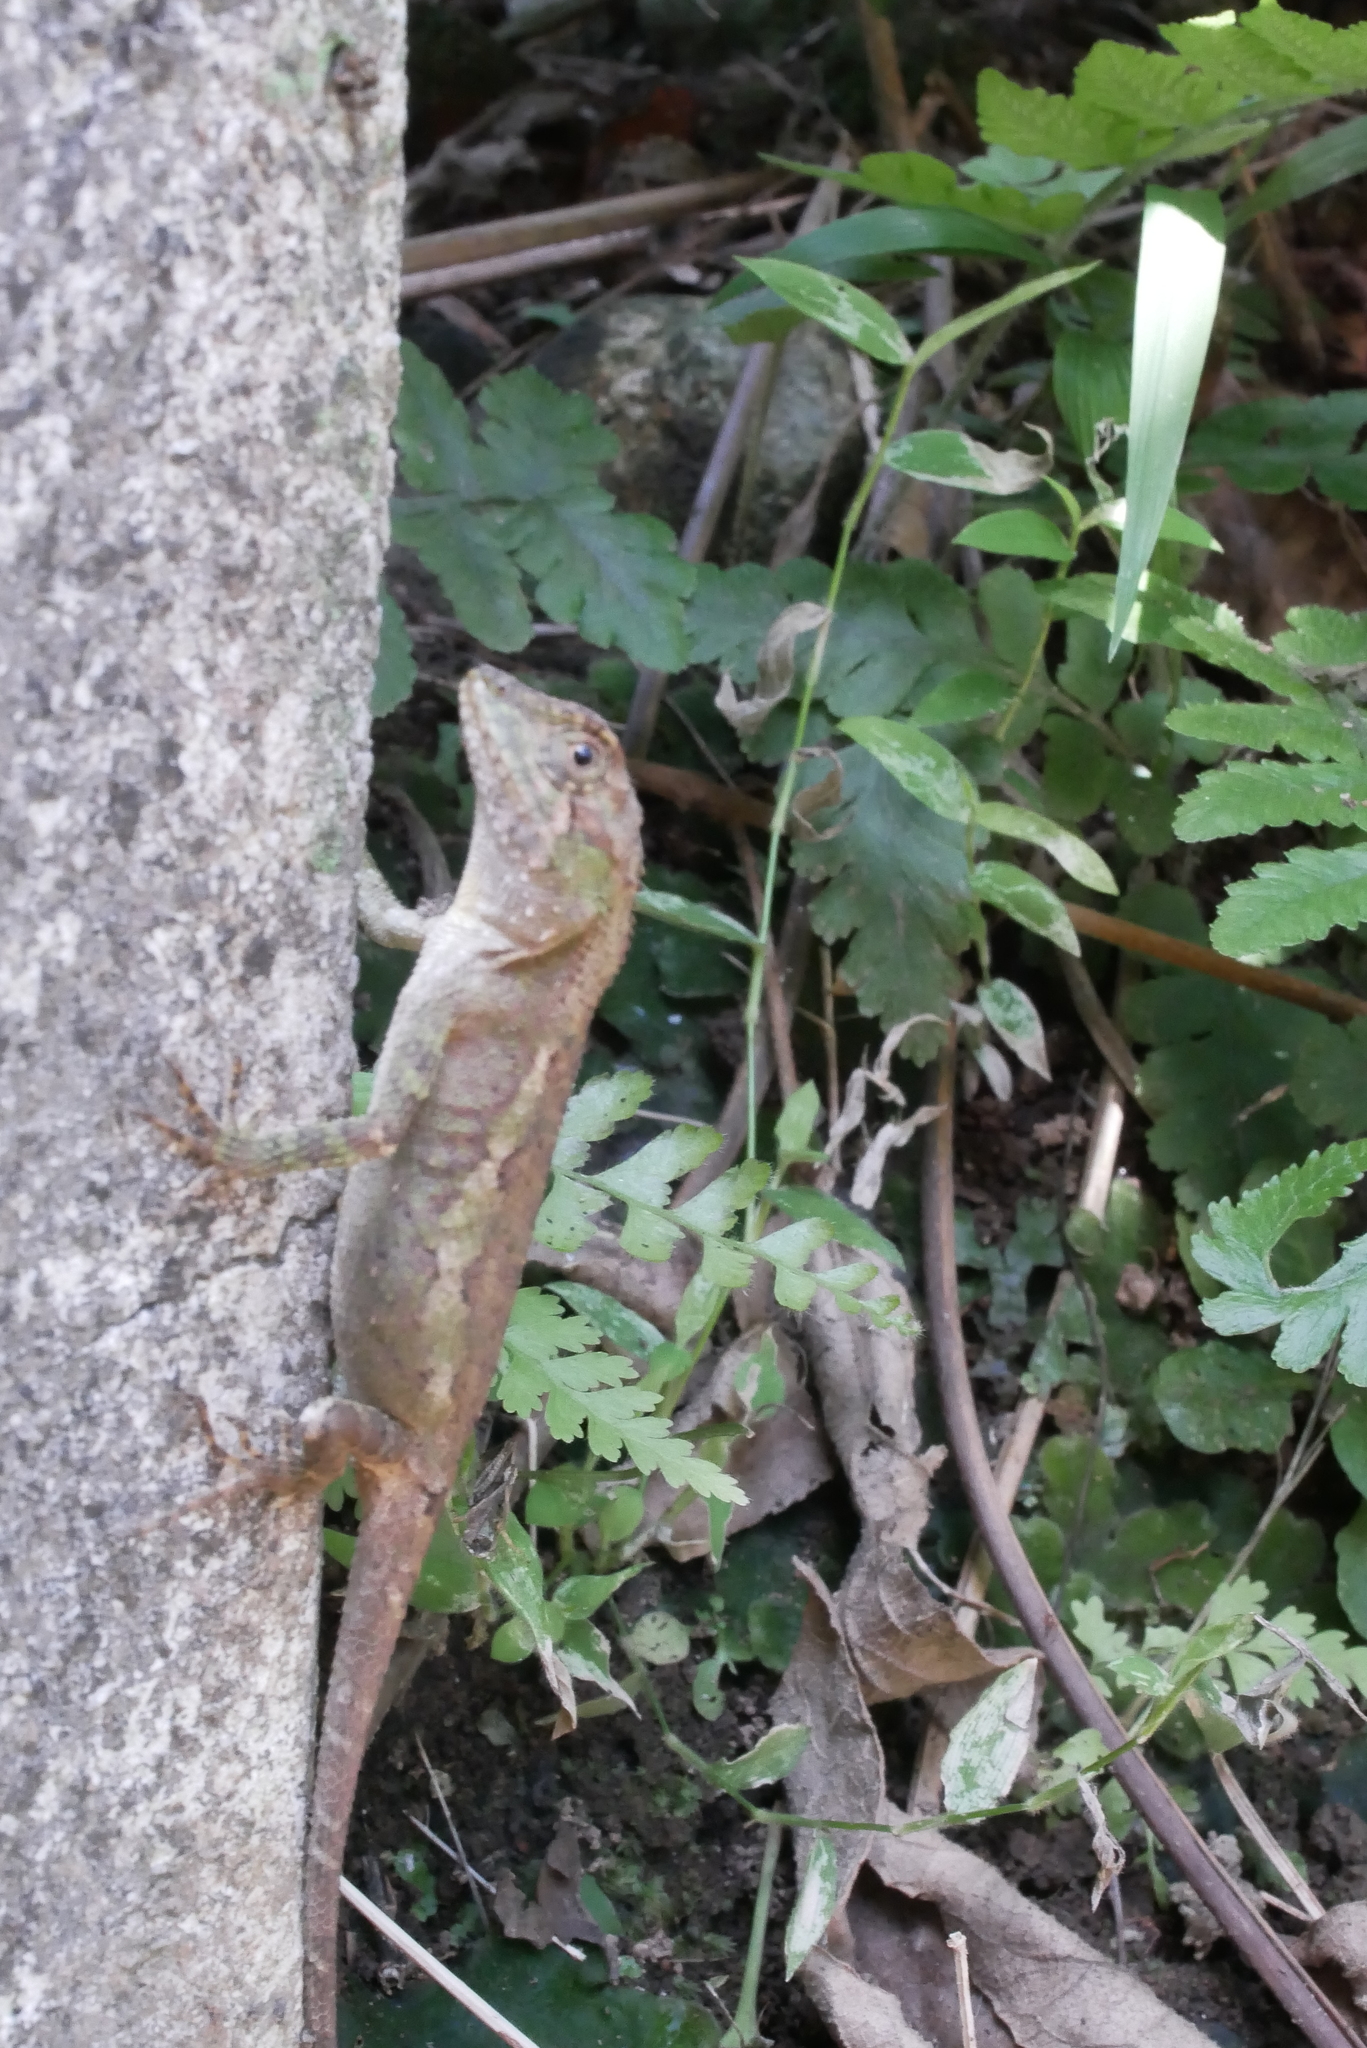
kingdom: Animalia
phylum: Chordata
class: Squamata
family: Agamidae
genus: Diploderma
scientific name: Diploderma swinhonis
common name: Taiwan japalure
